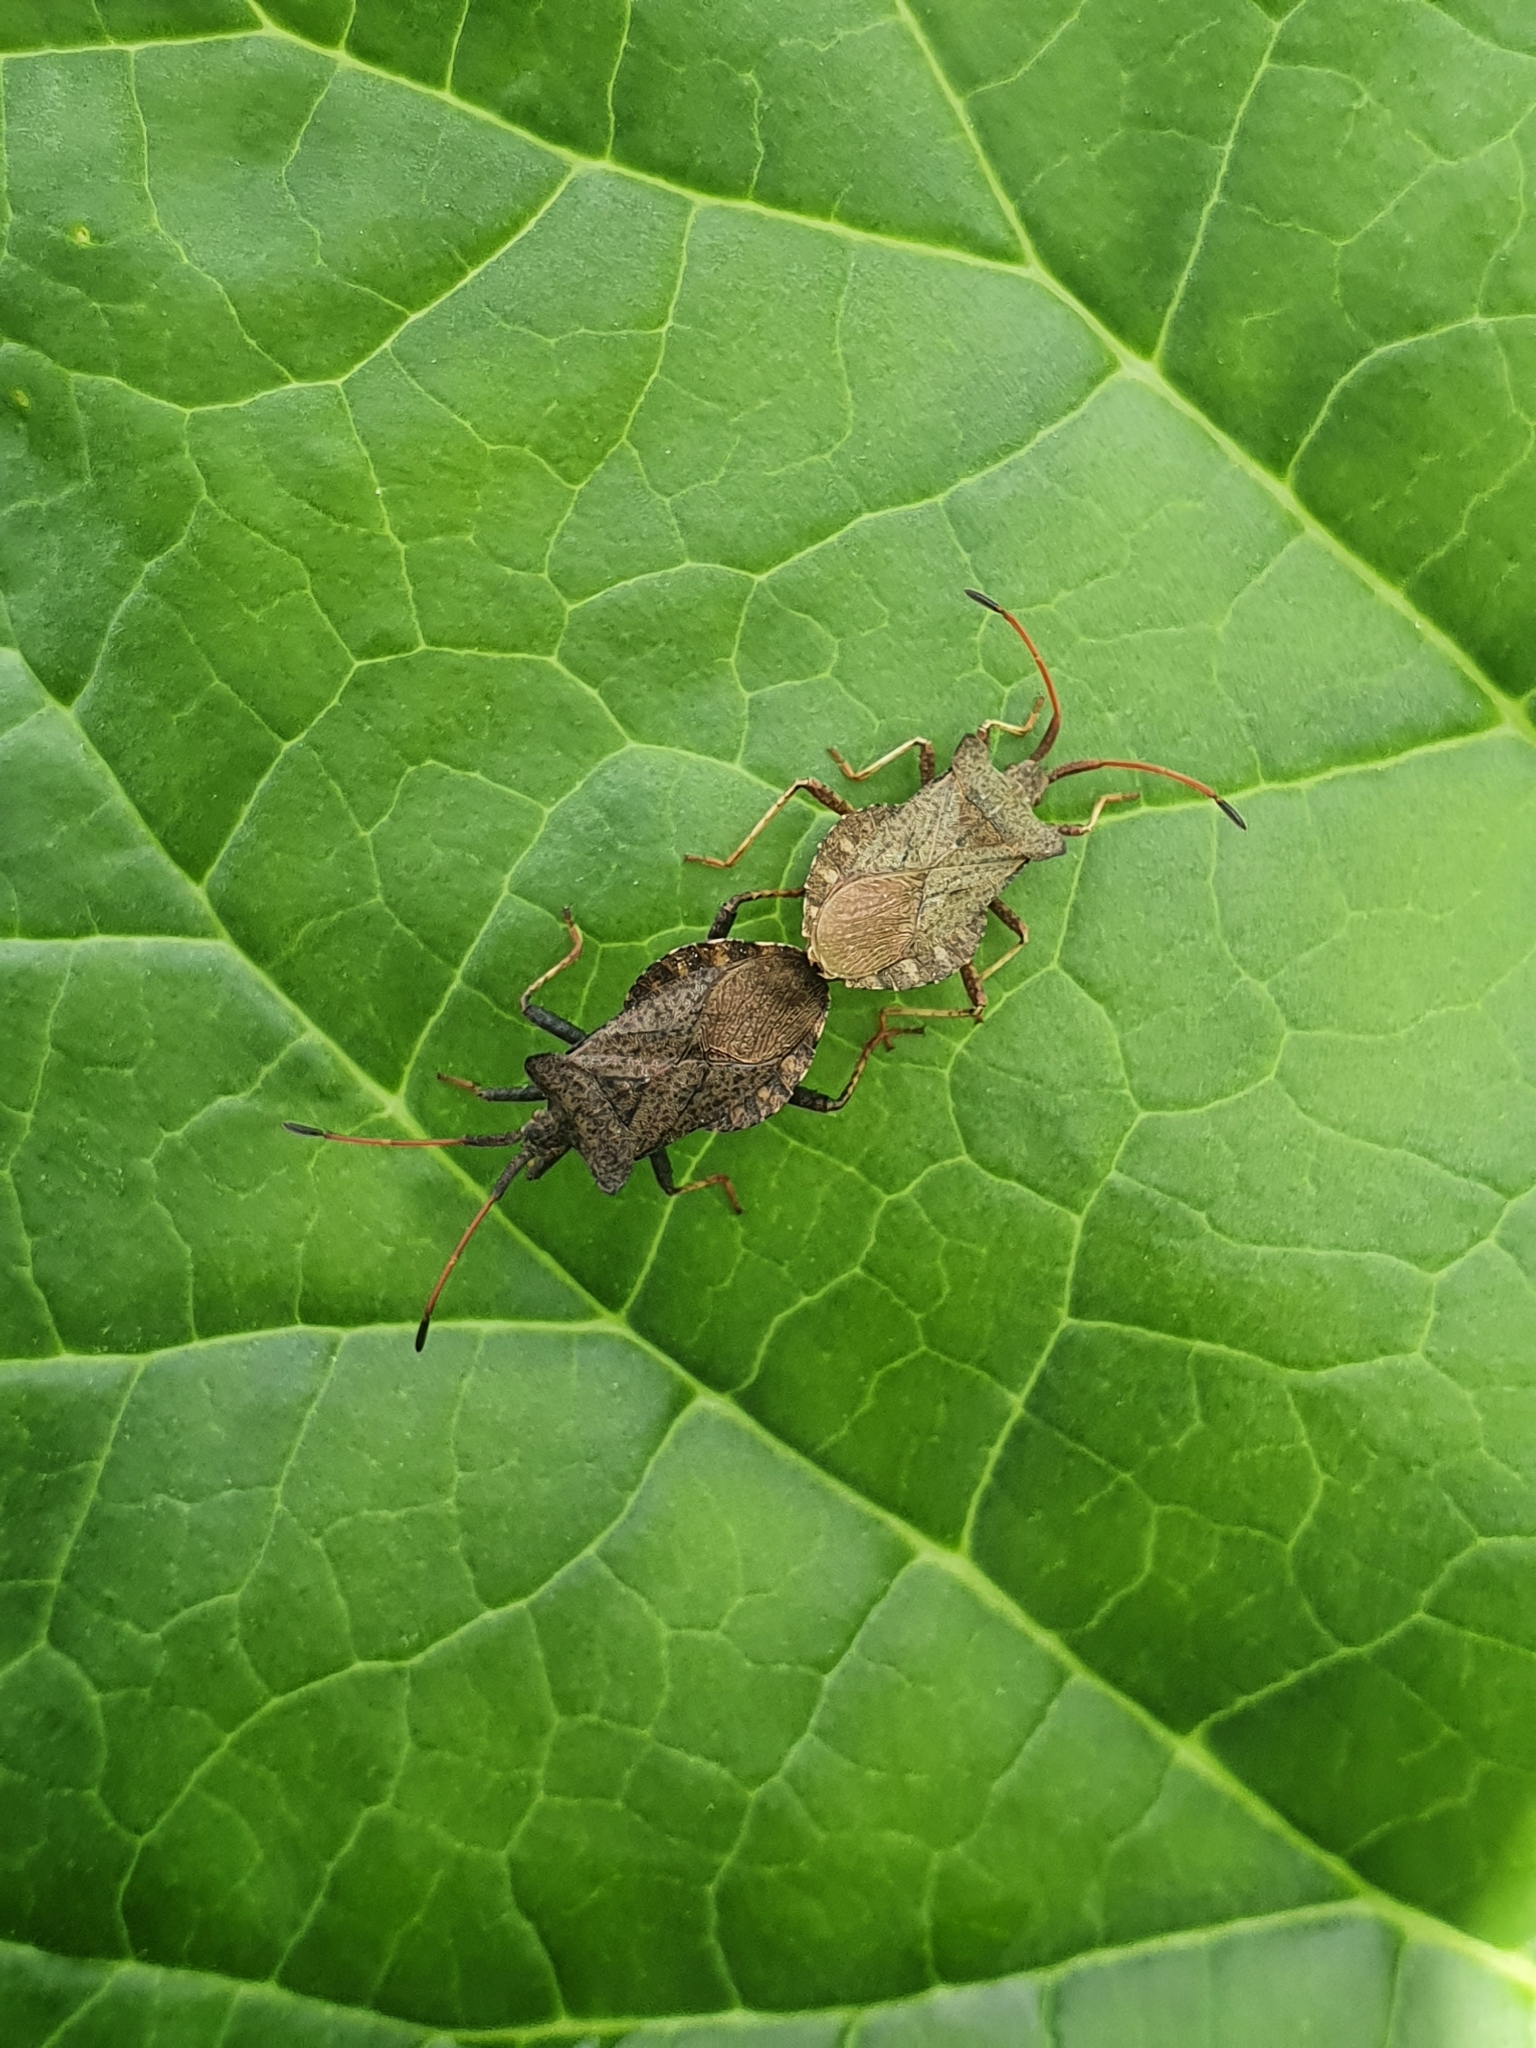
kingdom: Animalia
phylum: Arthropoda
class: Insecta
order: Hemiptera
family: Coreidae
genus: Coreus
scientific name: Coreus marginatus
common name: Dock bug
